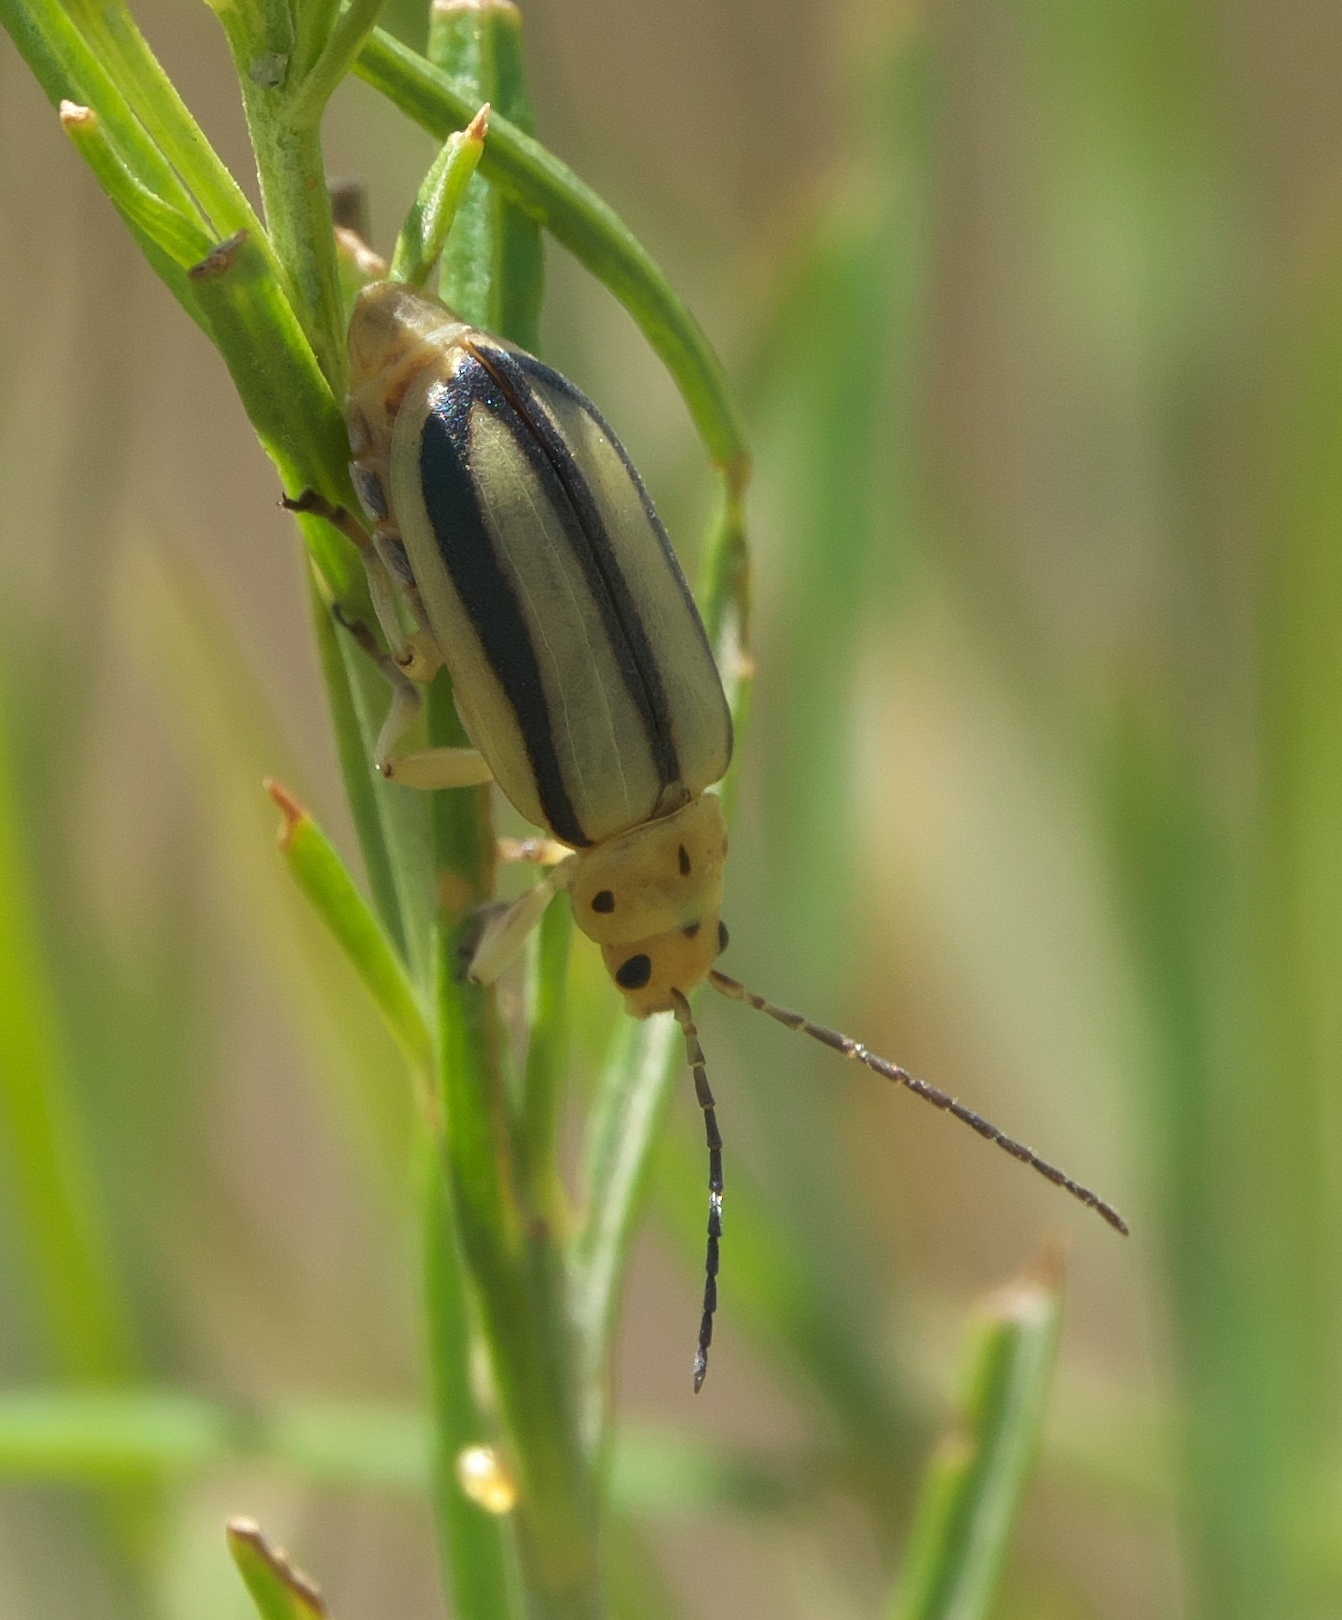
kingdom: Animalia
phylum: Arthropoda
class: Insecta
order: Coleoptera
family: Chrysomelidae
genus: Trirhabda
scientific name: Trirhabda nitidicollis
